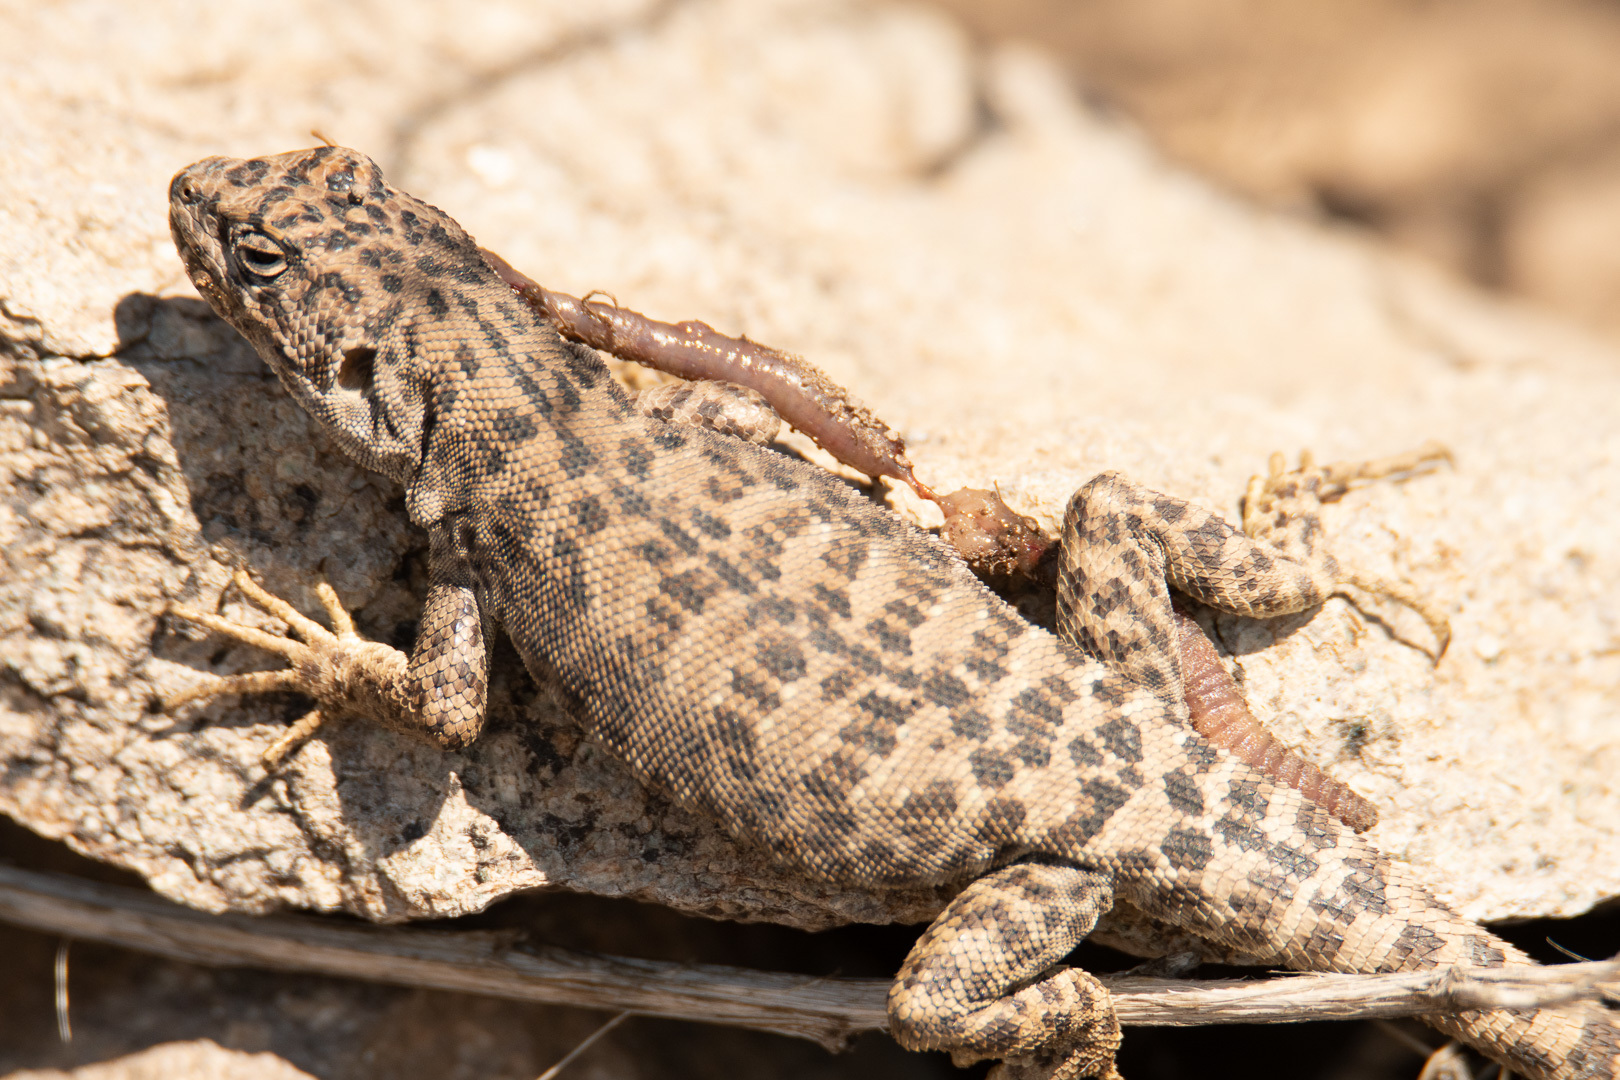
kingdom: Animalia
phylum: Chordata
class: Squamata
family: Liolaemidae
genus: Liolaemus
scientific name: Liolaemus leopardinus
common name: Leopard tree iguana
